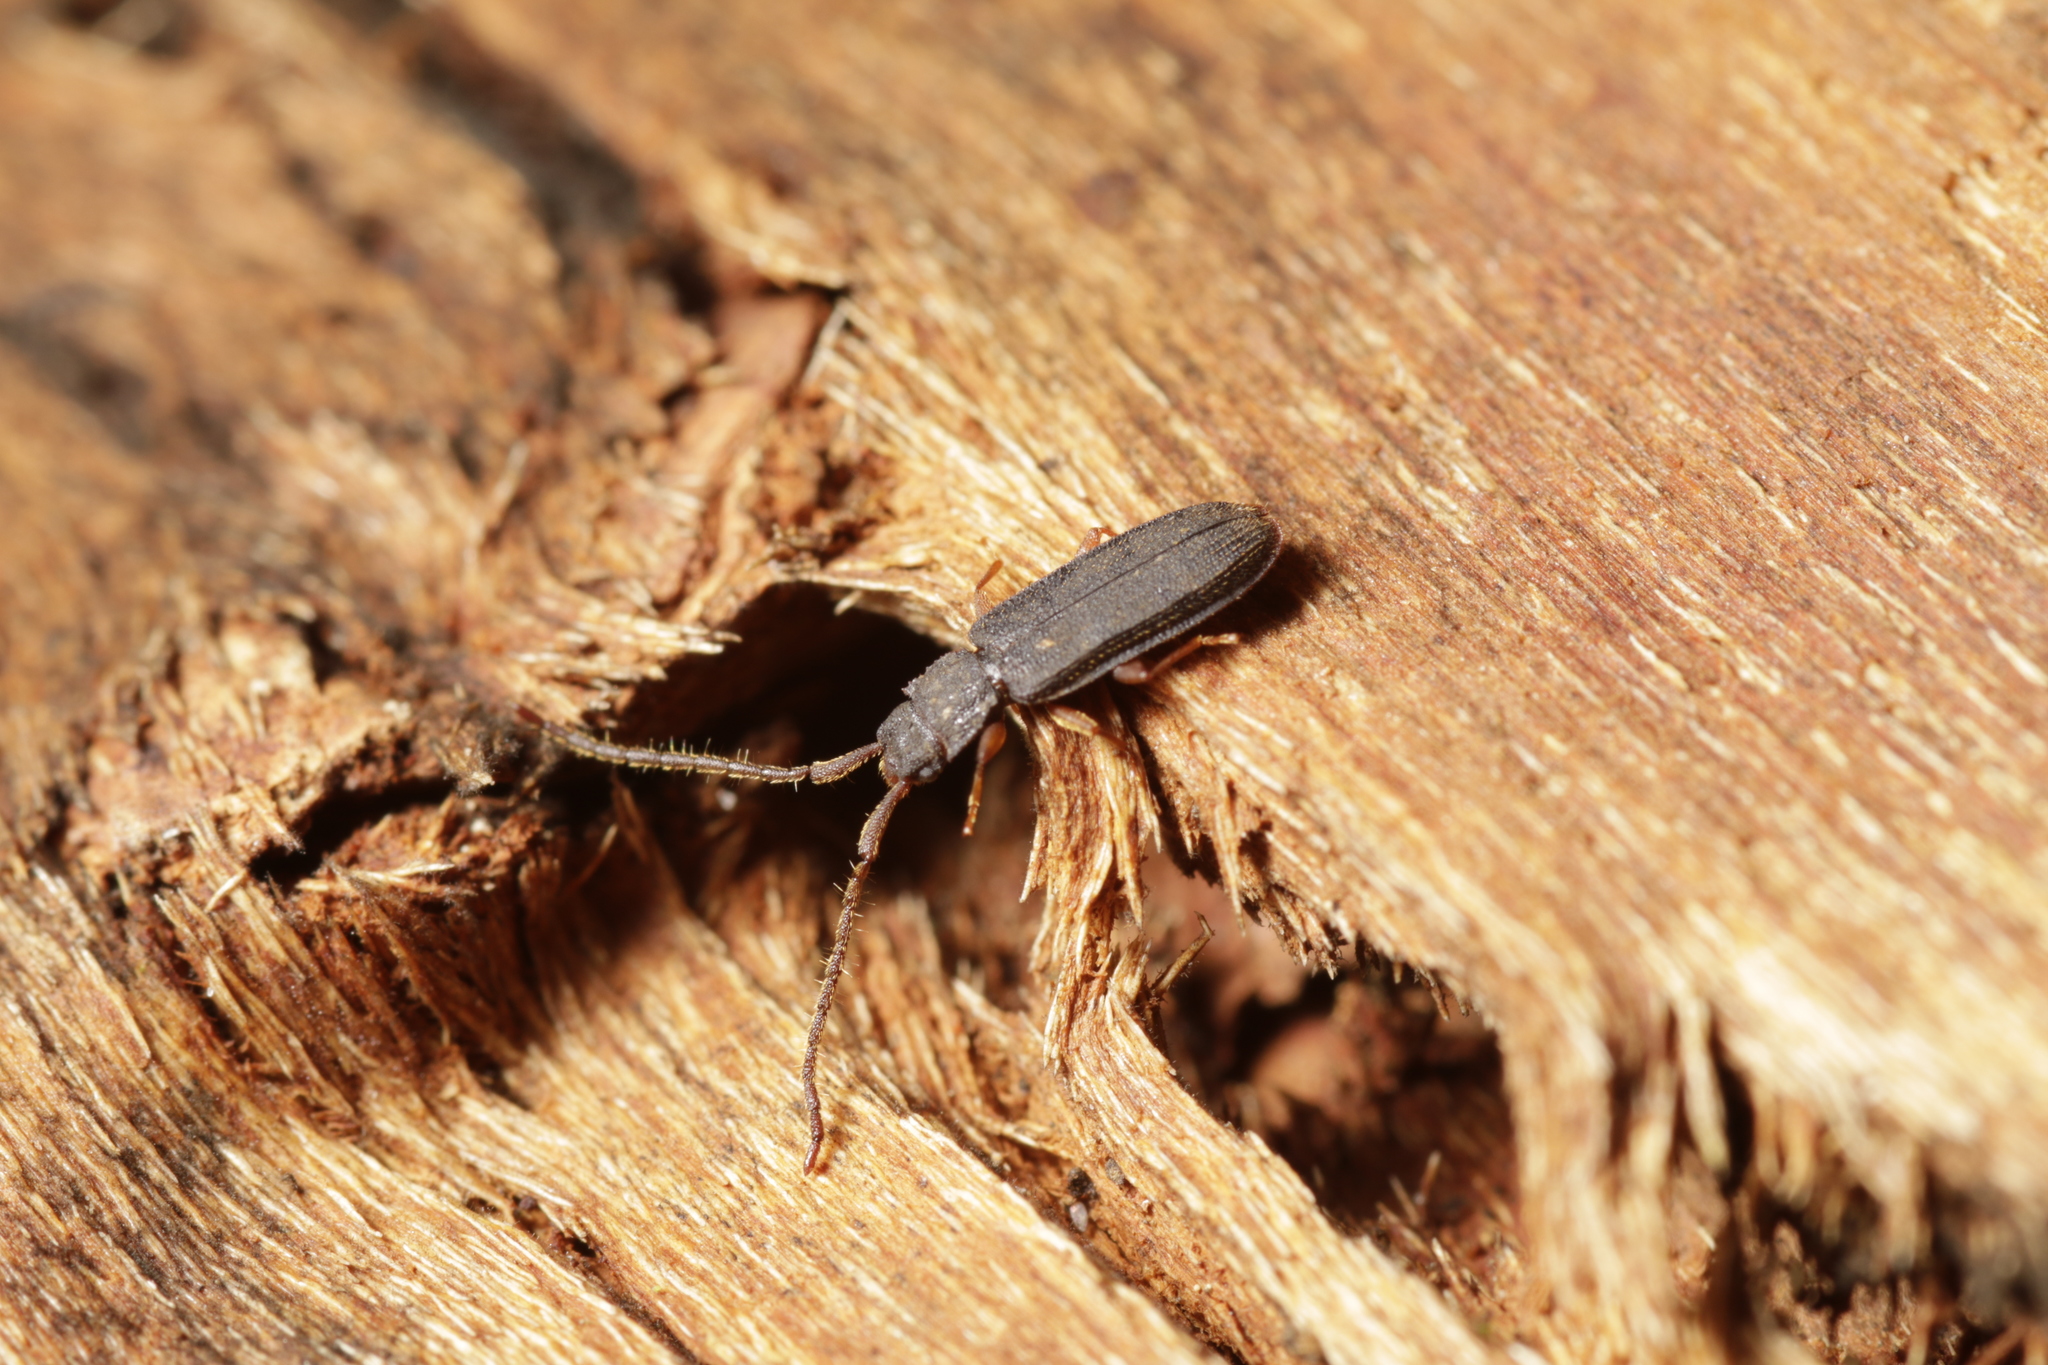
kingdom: Animalia
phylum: Arthropoda
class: Insecta
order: Coleoptera
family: Silvanidae
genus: Uleiota
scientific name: Uleiota planatus
